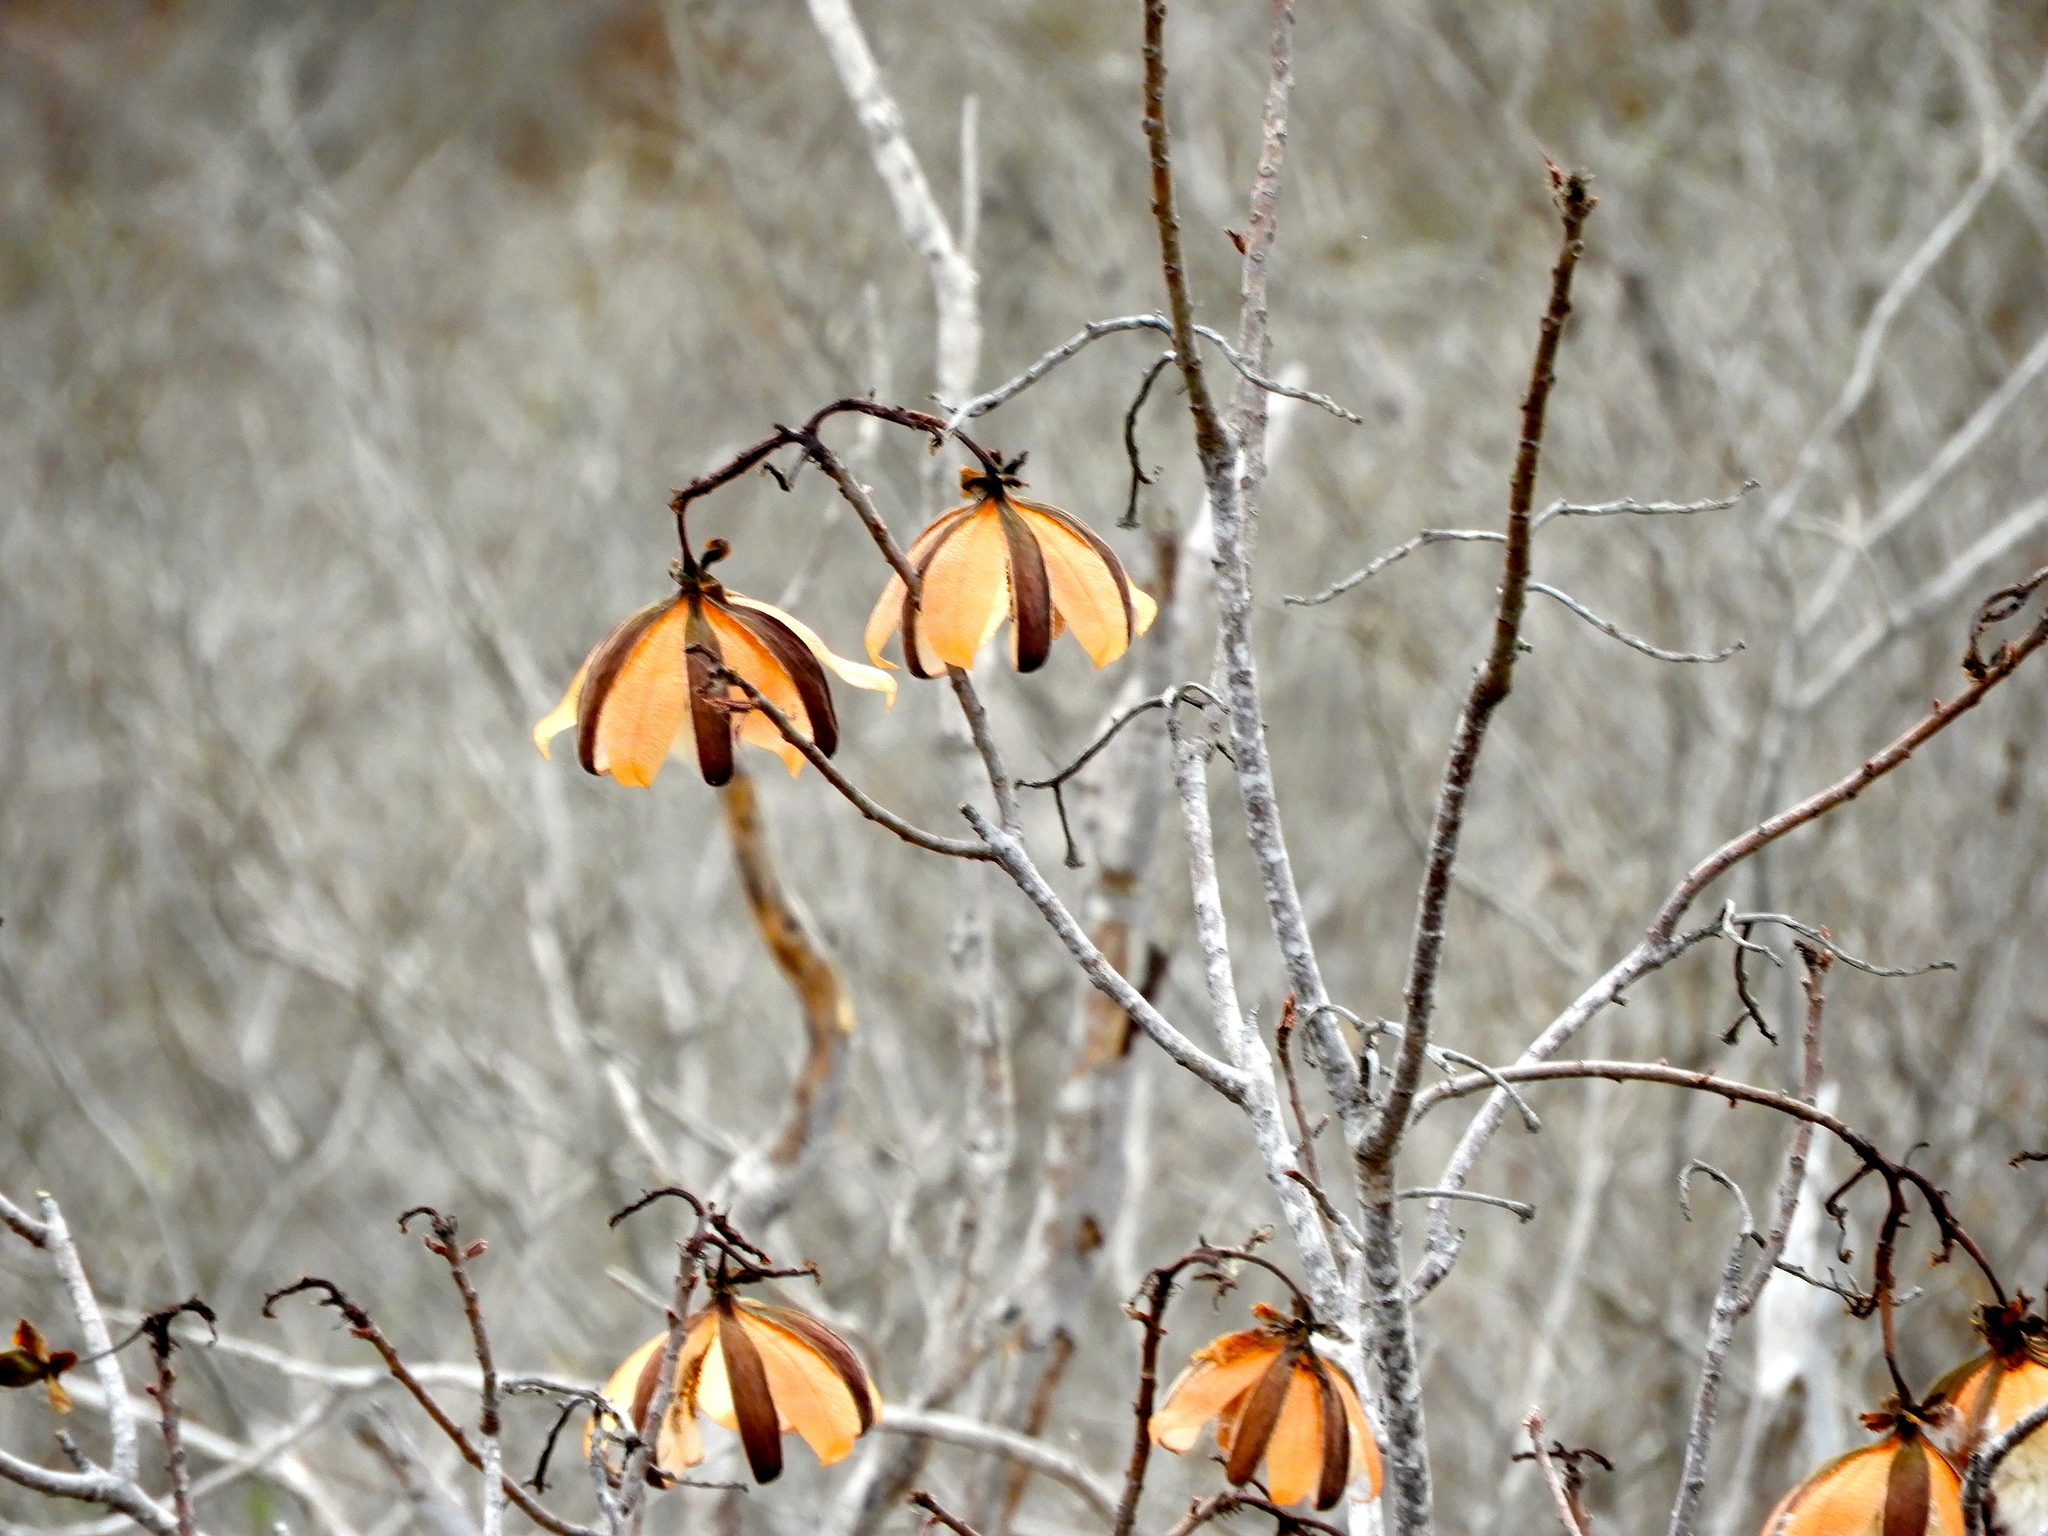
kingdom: Plantae
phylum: Tracheophyta
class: Magnoliopsida
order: Malvales
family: Cochlospermaceae
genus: Cochlospermum
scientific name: Cochlospermum vitifolium
